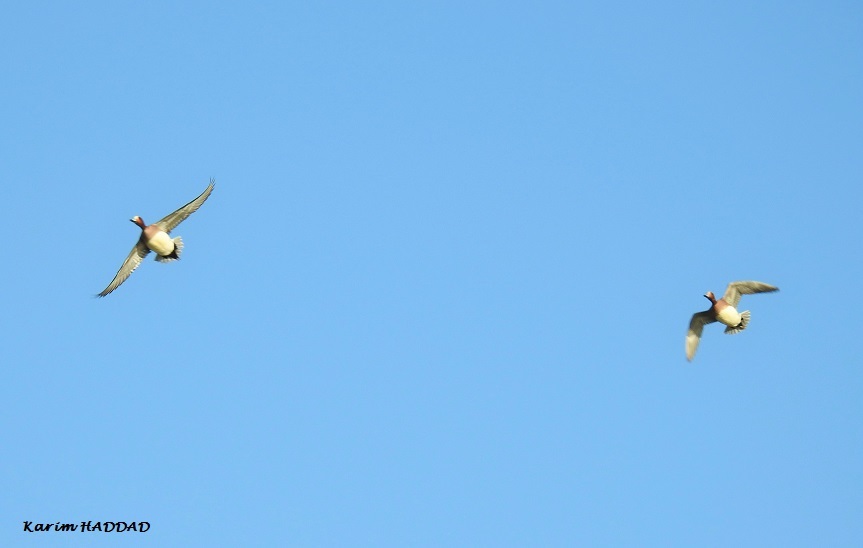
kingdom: Animalia
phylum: Chordata
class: Aves
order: Anseriformes
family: Anatidae
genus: Mareca
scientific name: Mareca penelope
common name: Eurasian wigeon
